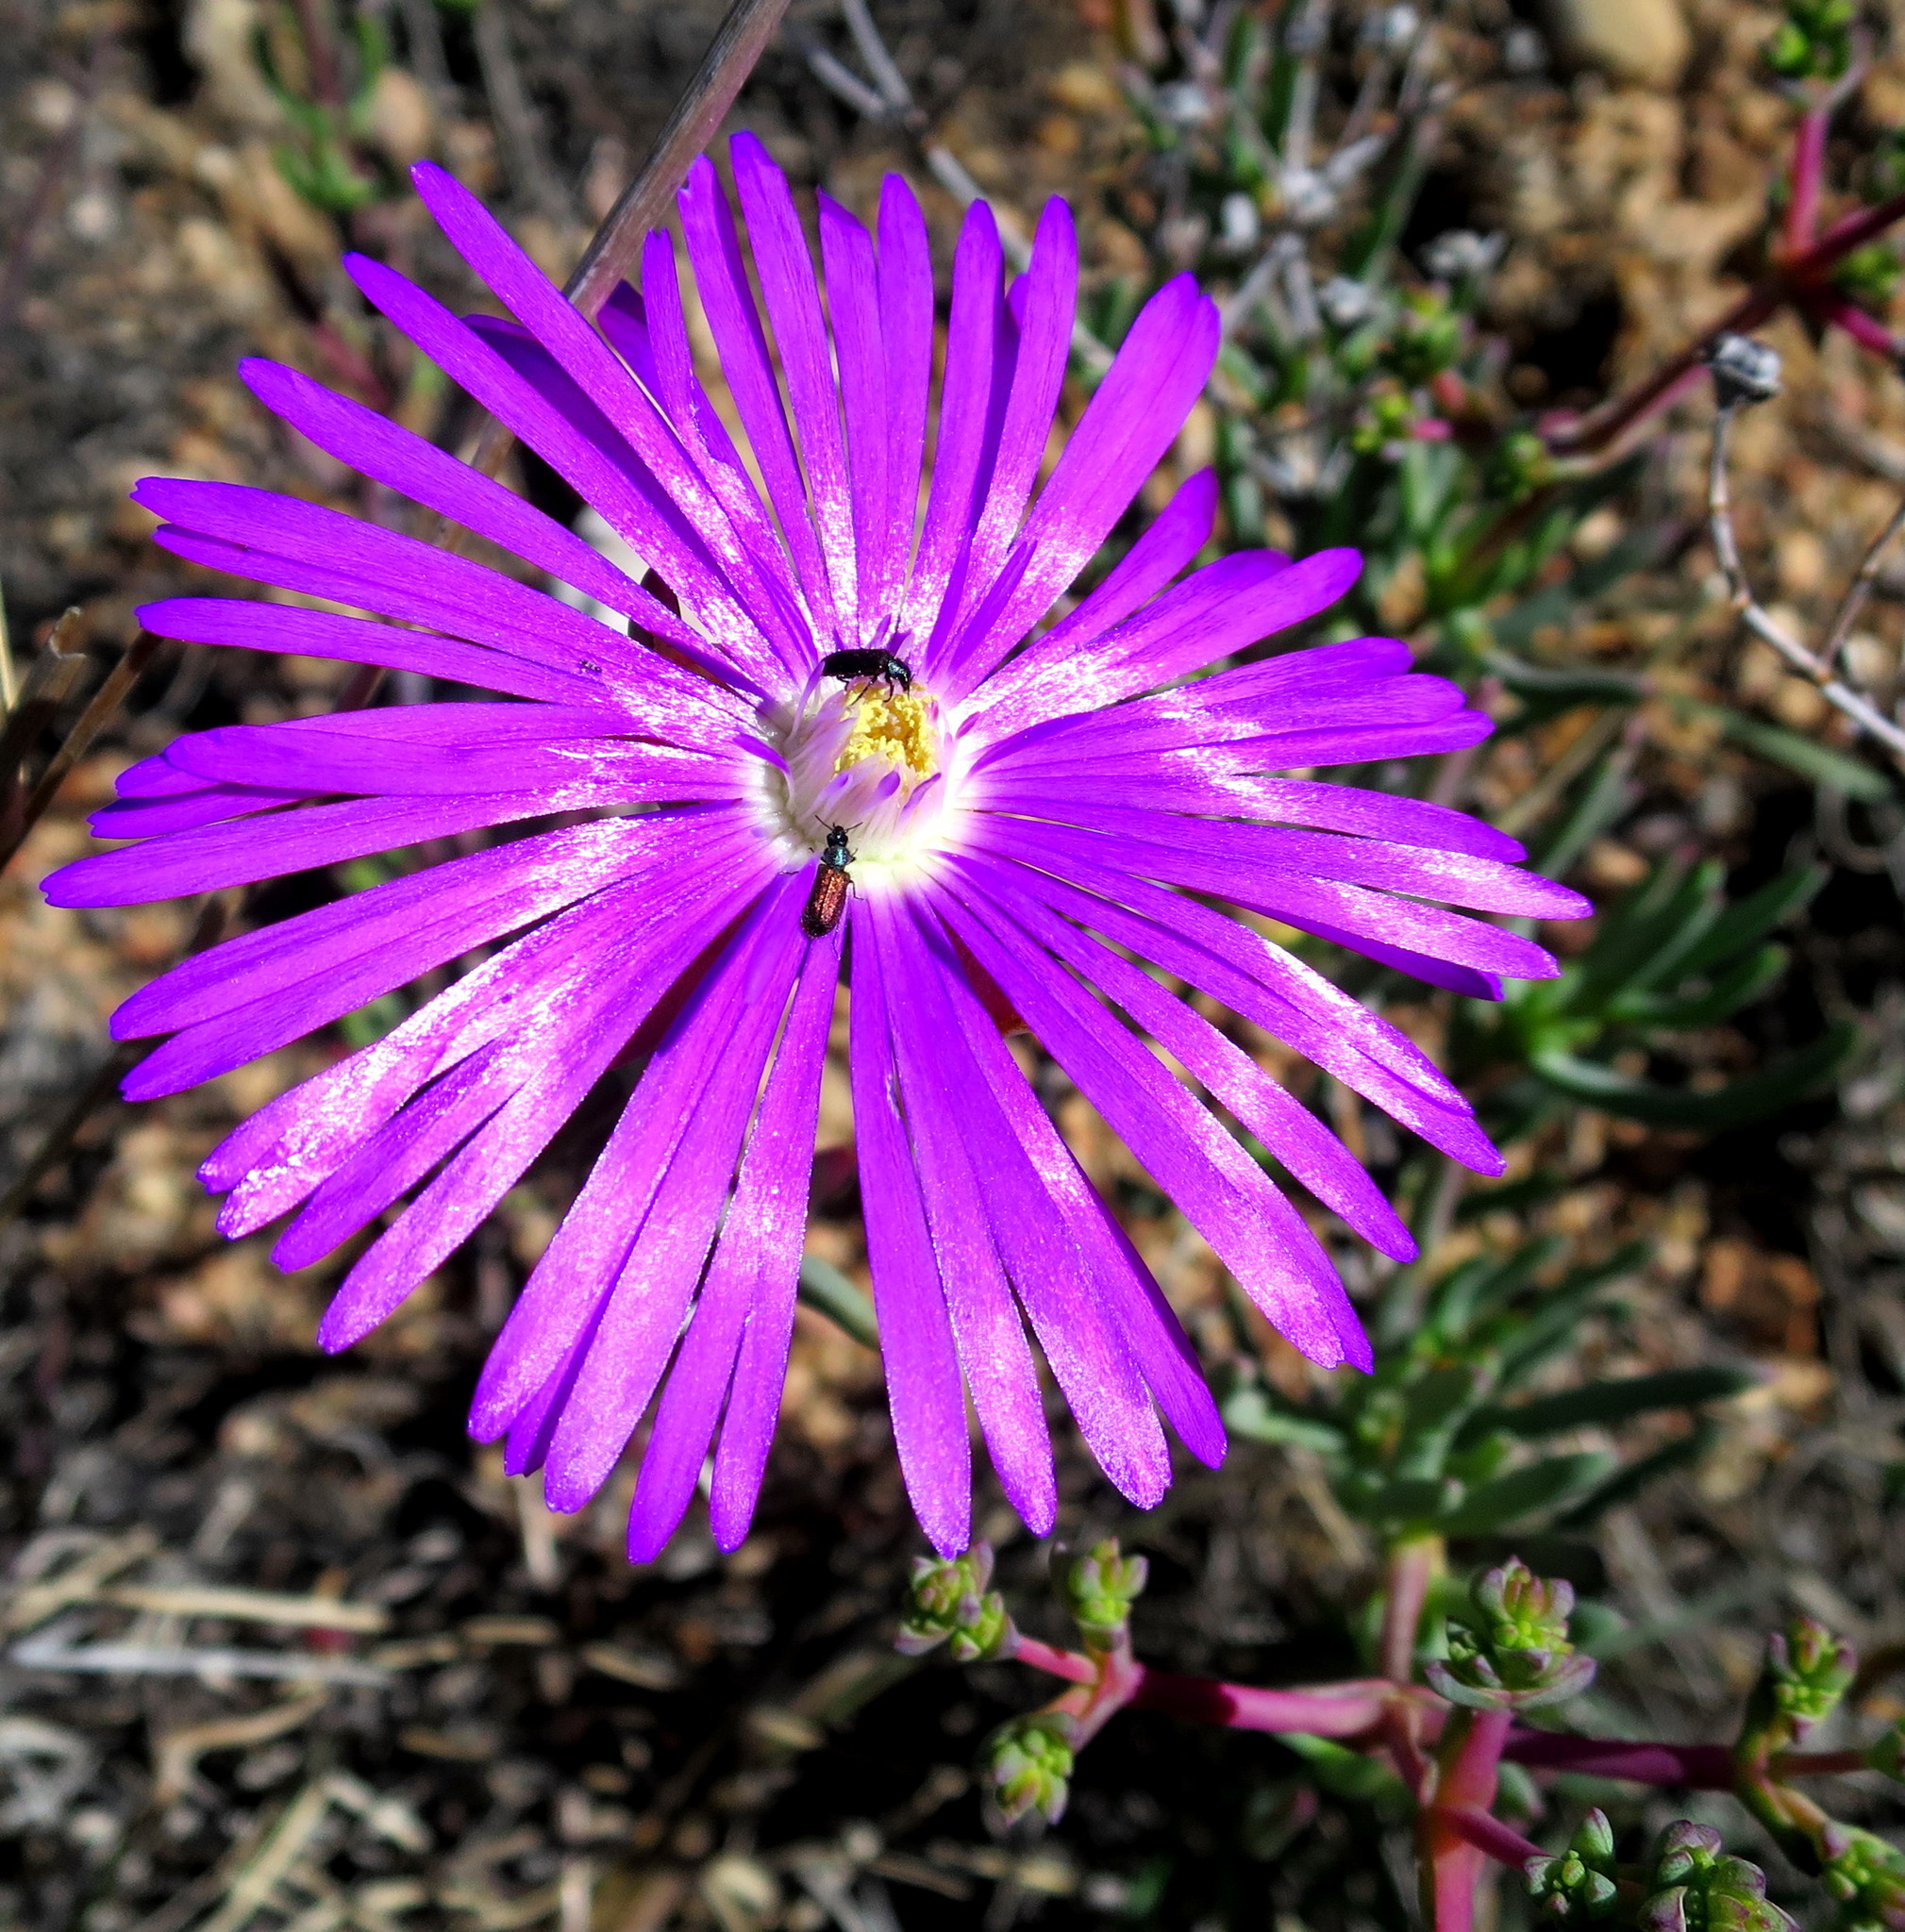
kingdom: Plantae
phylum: Tracheophyta
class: Magnoliopsida
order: Caryophyllales
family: Aizoaceae
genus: Lampranthus
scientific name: Lampranthus affinis
